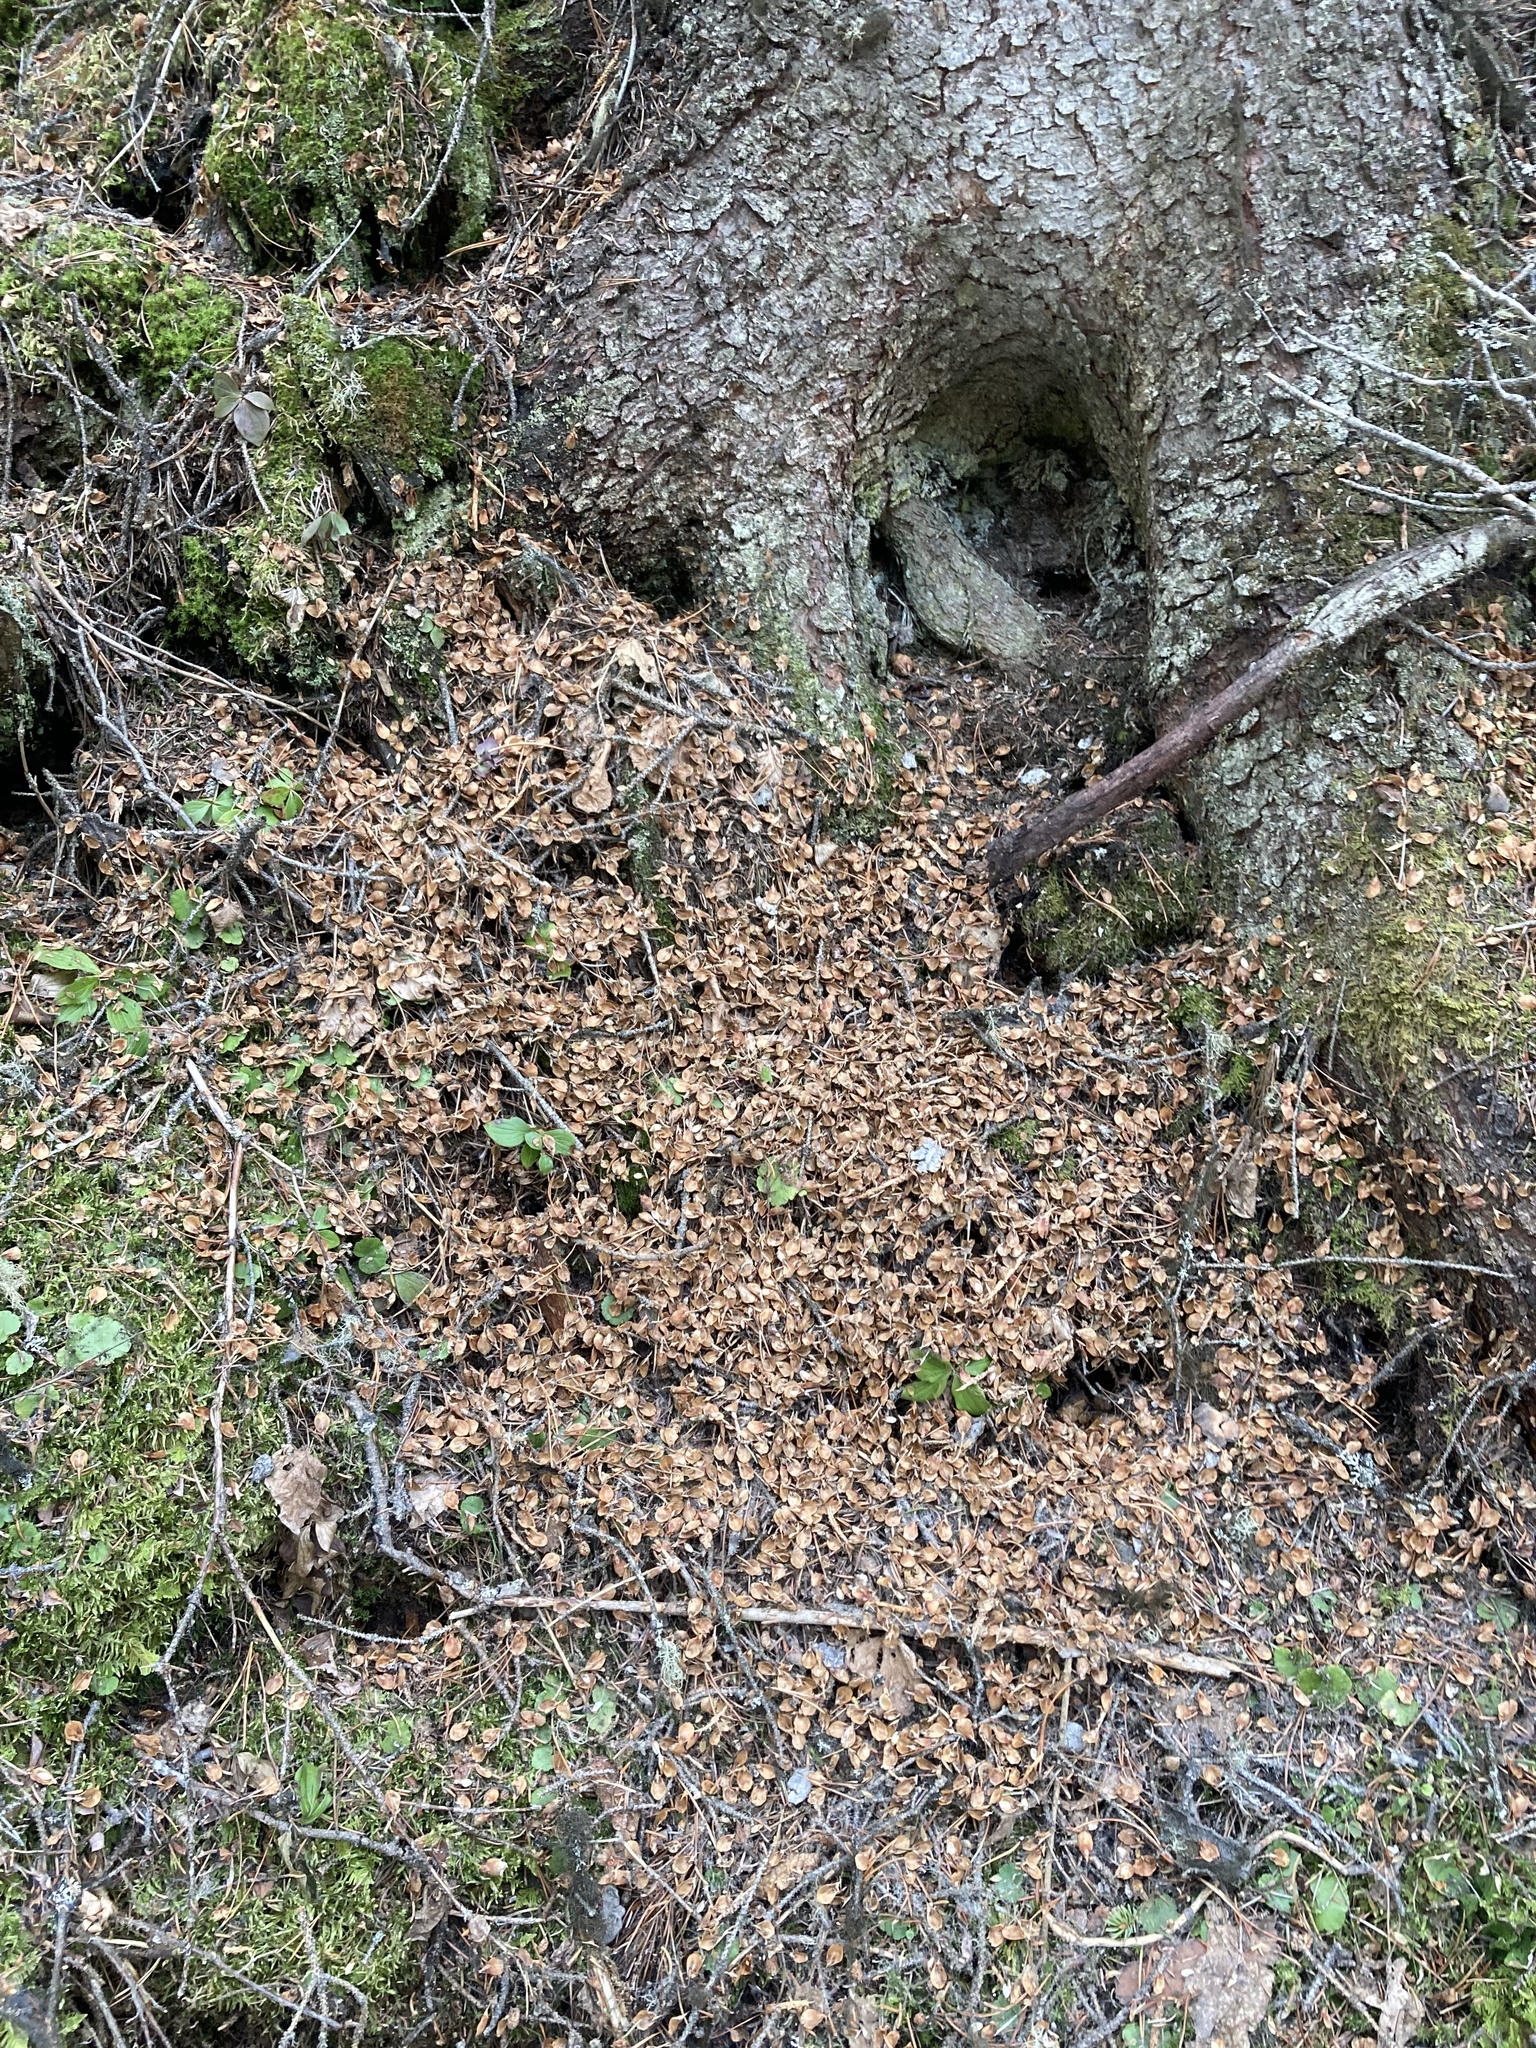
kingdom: Animalia
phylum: Chordata
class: Mammalia
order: Rodentia
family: Sciuridae
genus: Tamiasciurus
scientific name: Tamiasciurus hudsonicus
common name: Red squirrel
